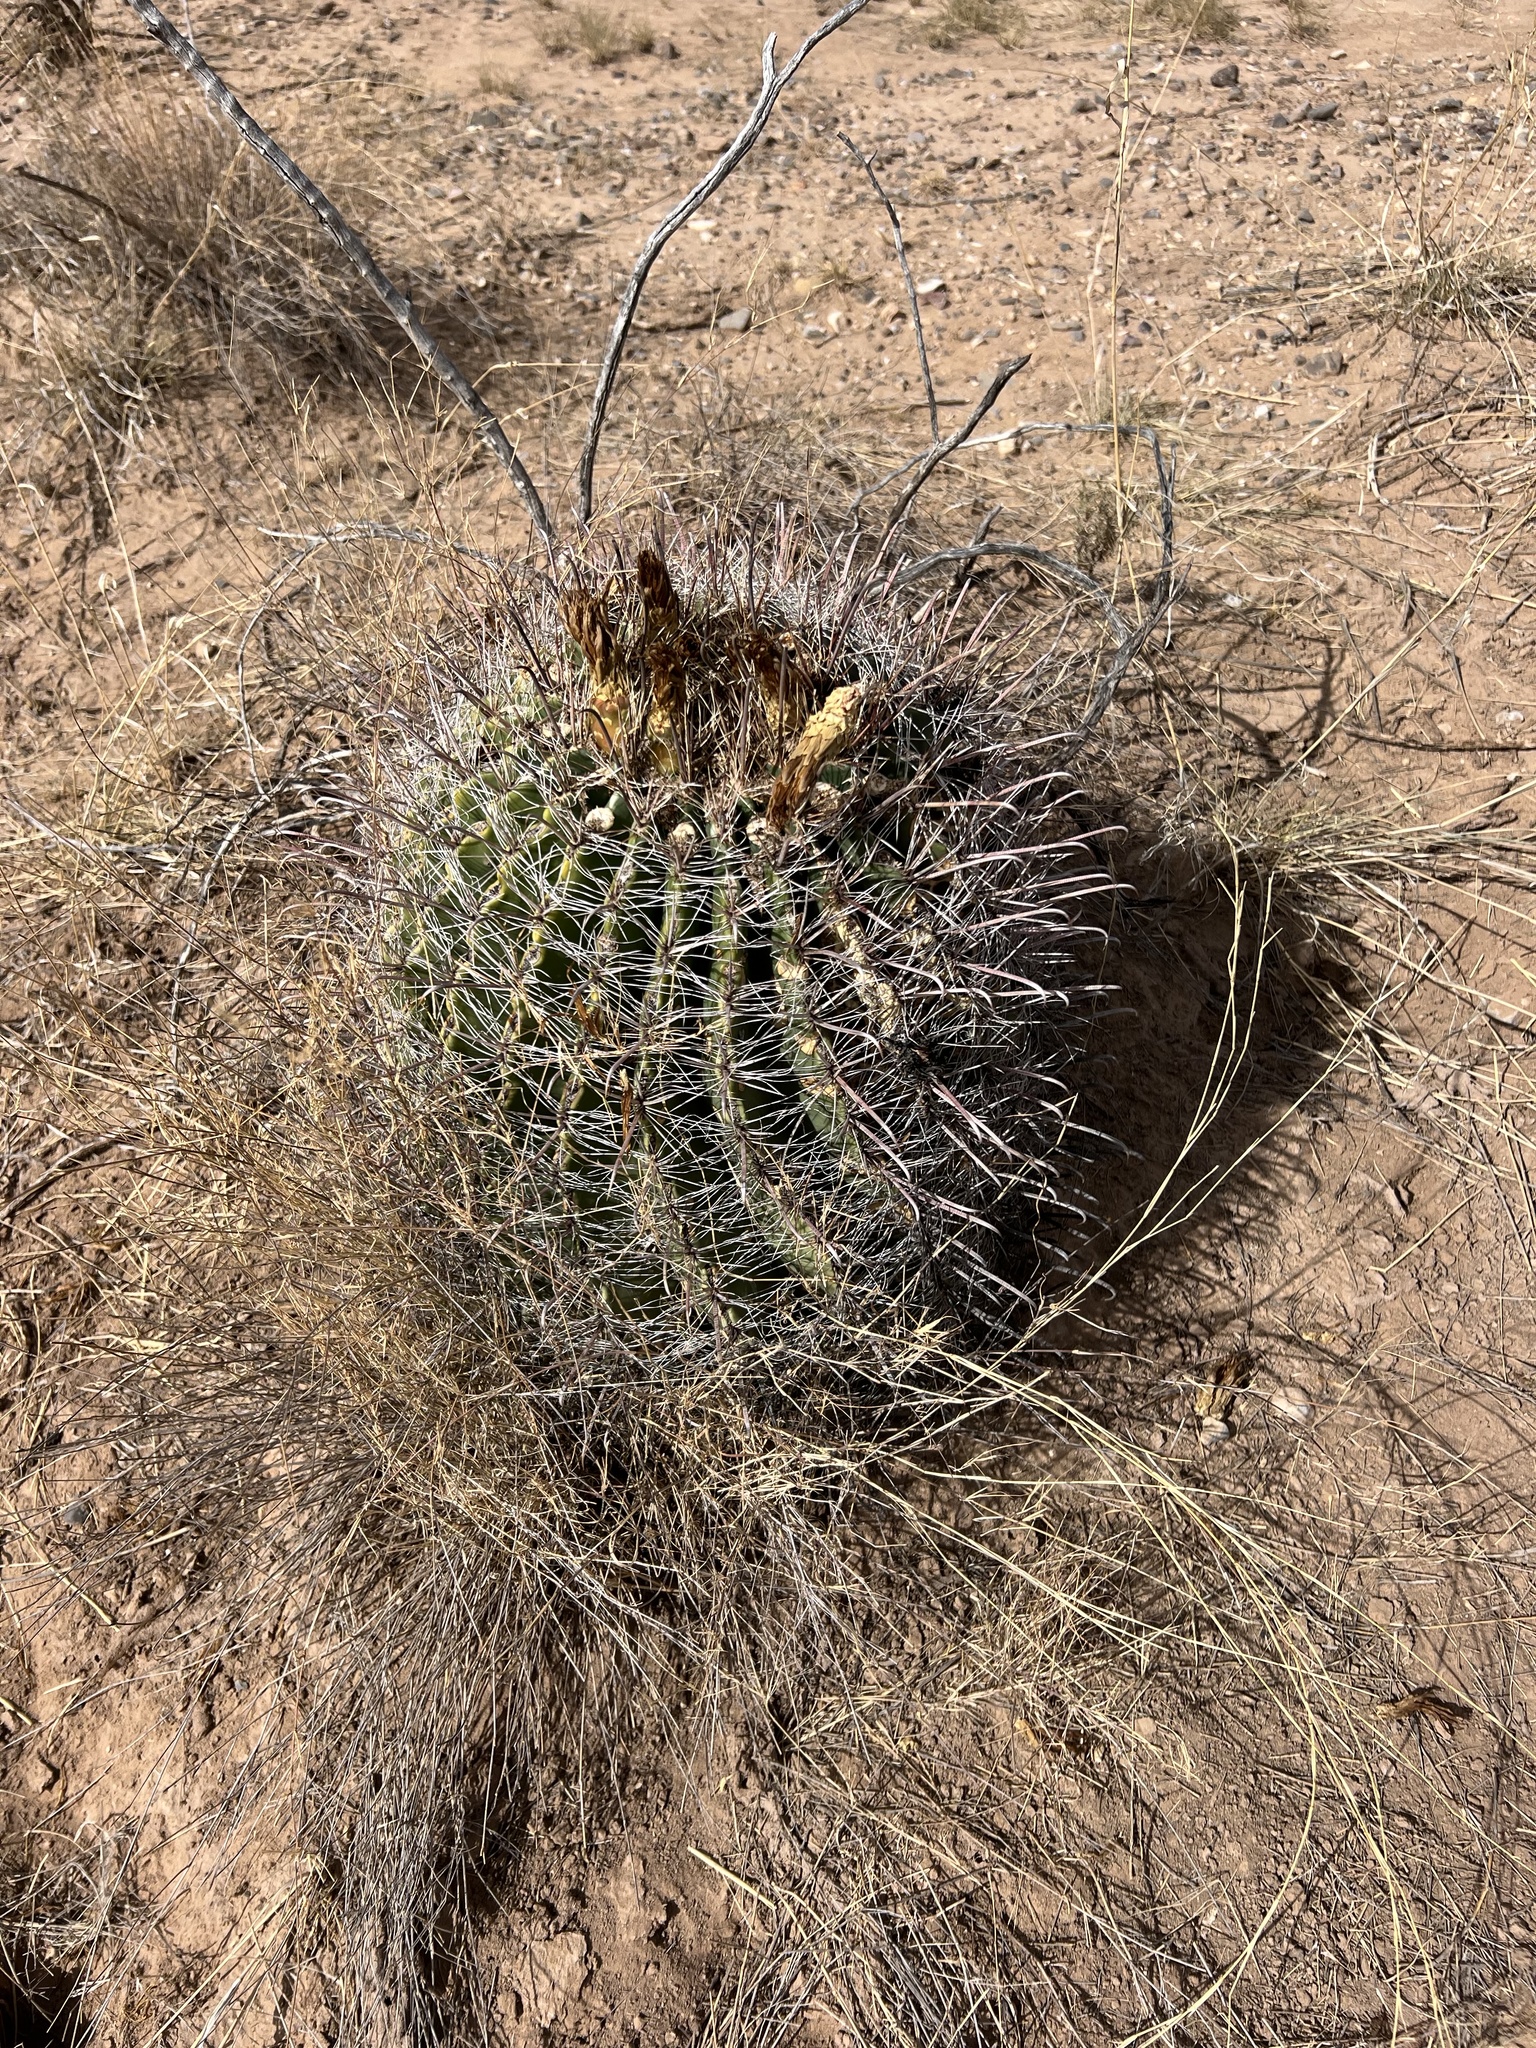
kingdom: Plantae
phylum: Tracheophyta
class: Magnoliopsida
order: Caryophyllales
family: Cactaceae
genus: Ferocactus
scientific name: Ferocactus wislizeni
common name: Candy barrel cactus
